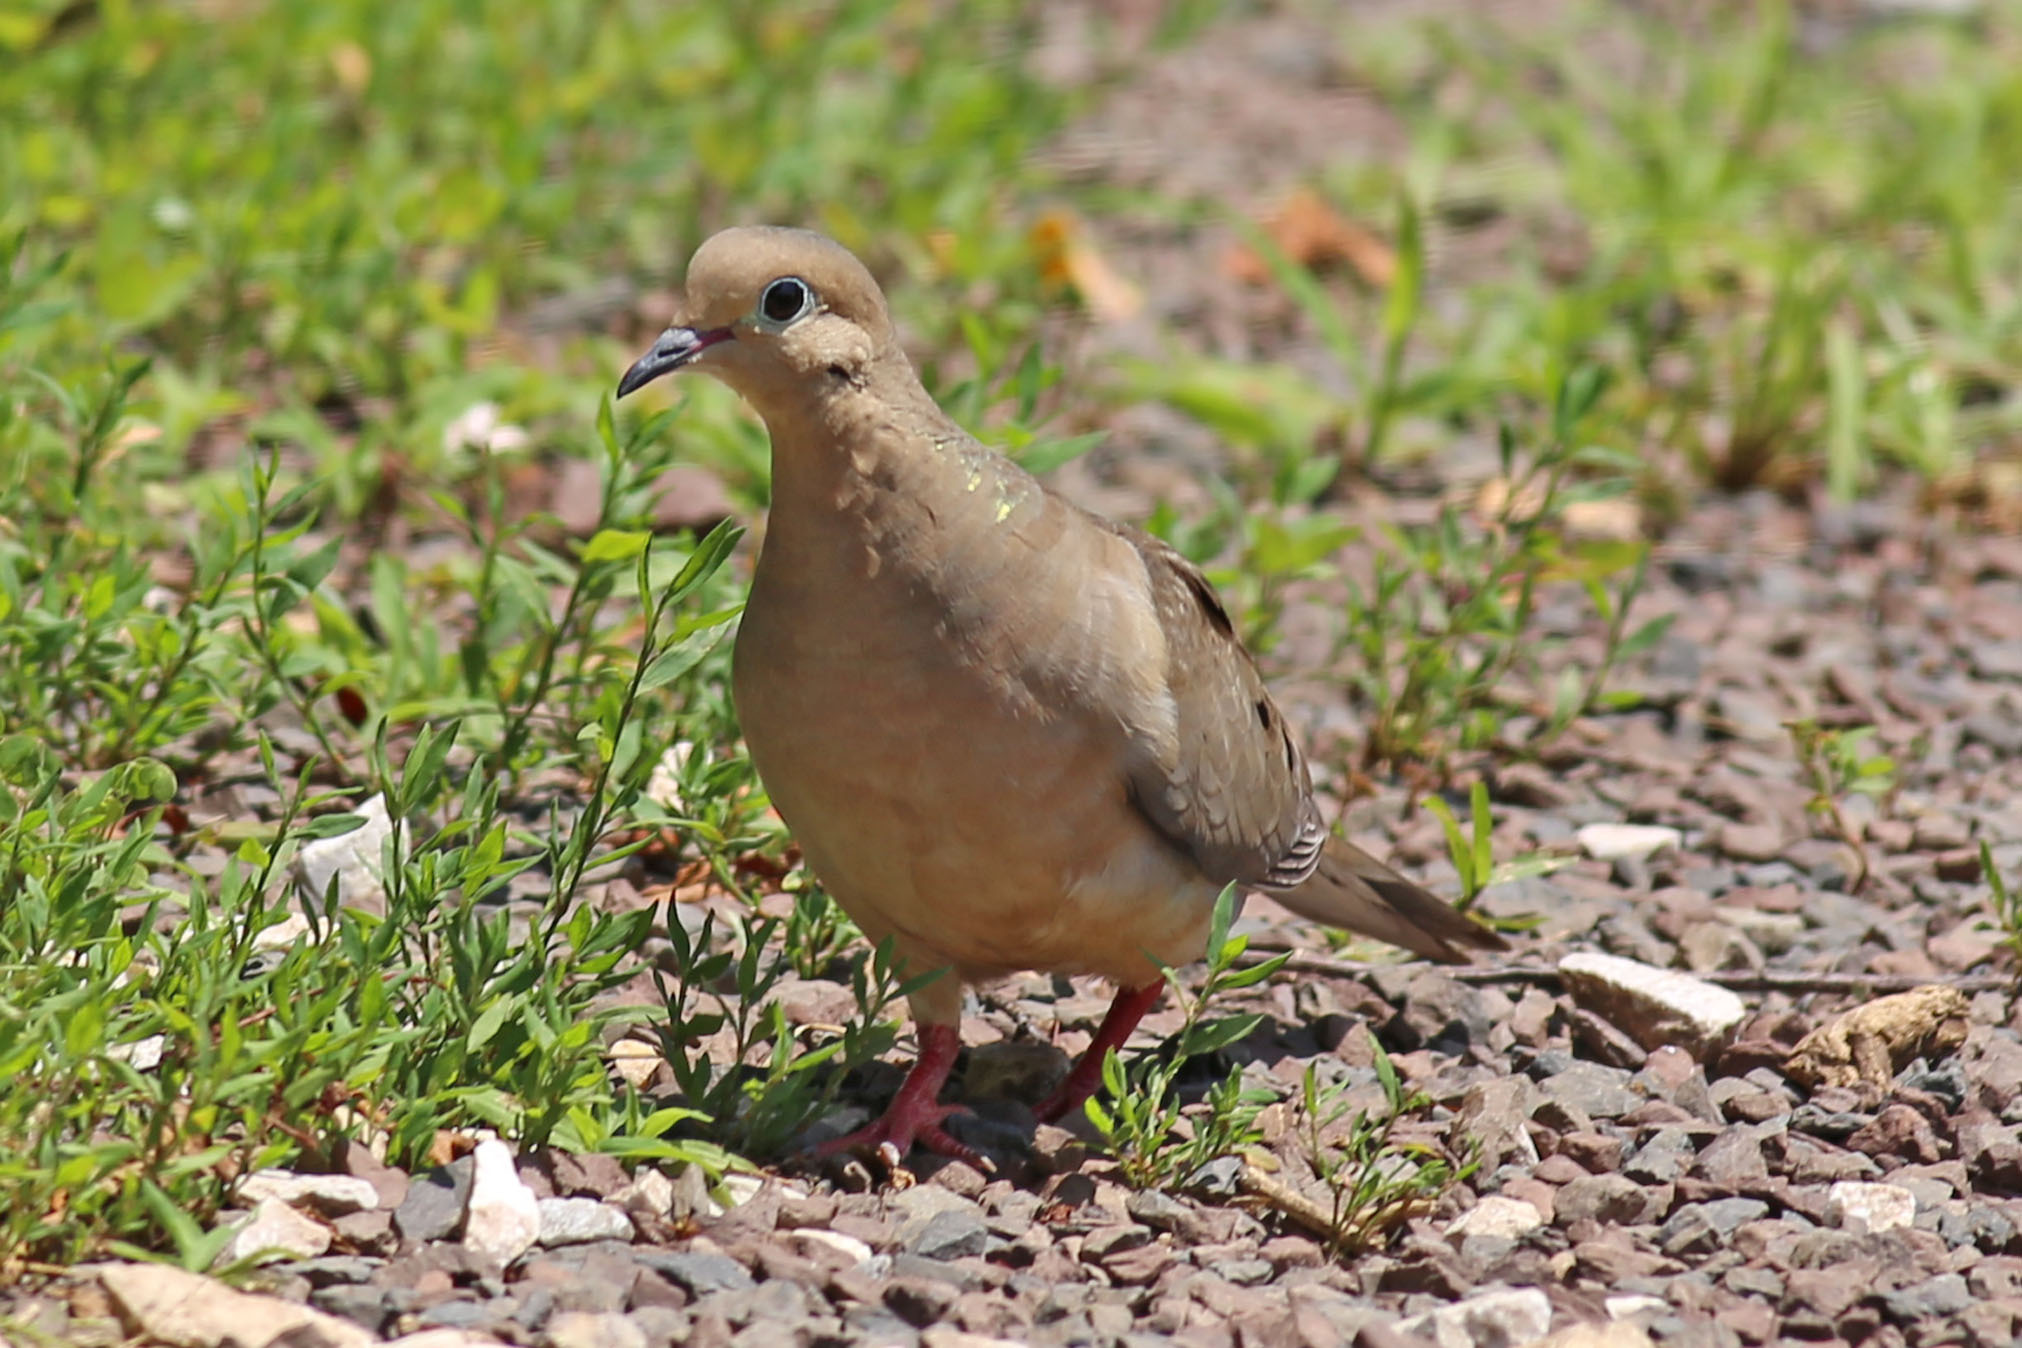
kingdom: Animalia
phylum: Chordata
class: Aves
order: Columbiformes
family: Columbidae
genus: Zenaida
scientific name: Zenaida macroura
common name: Mourning dove
